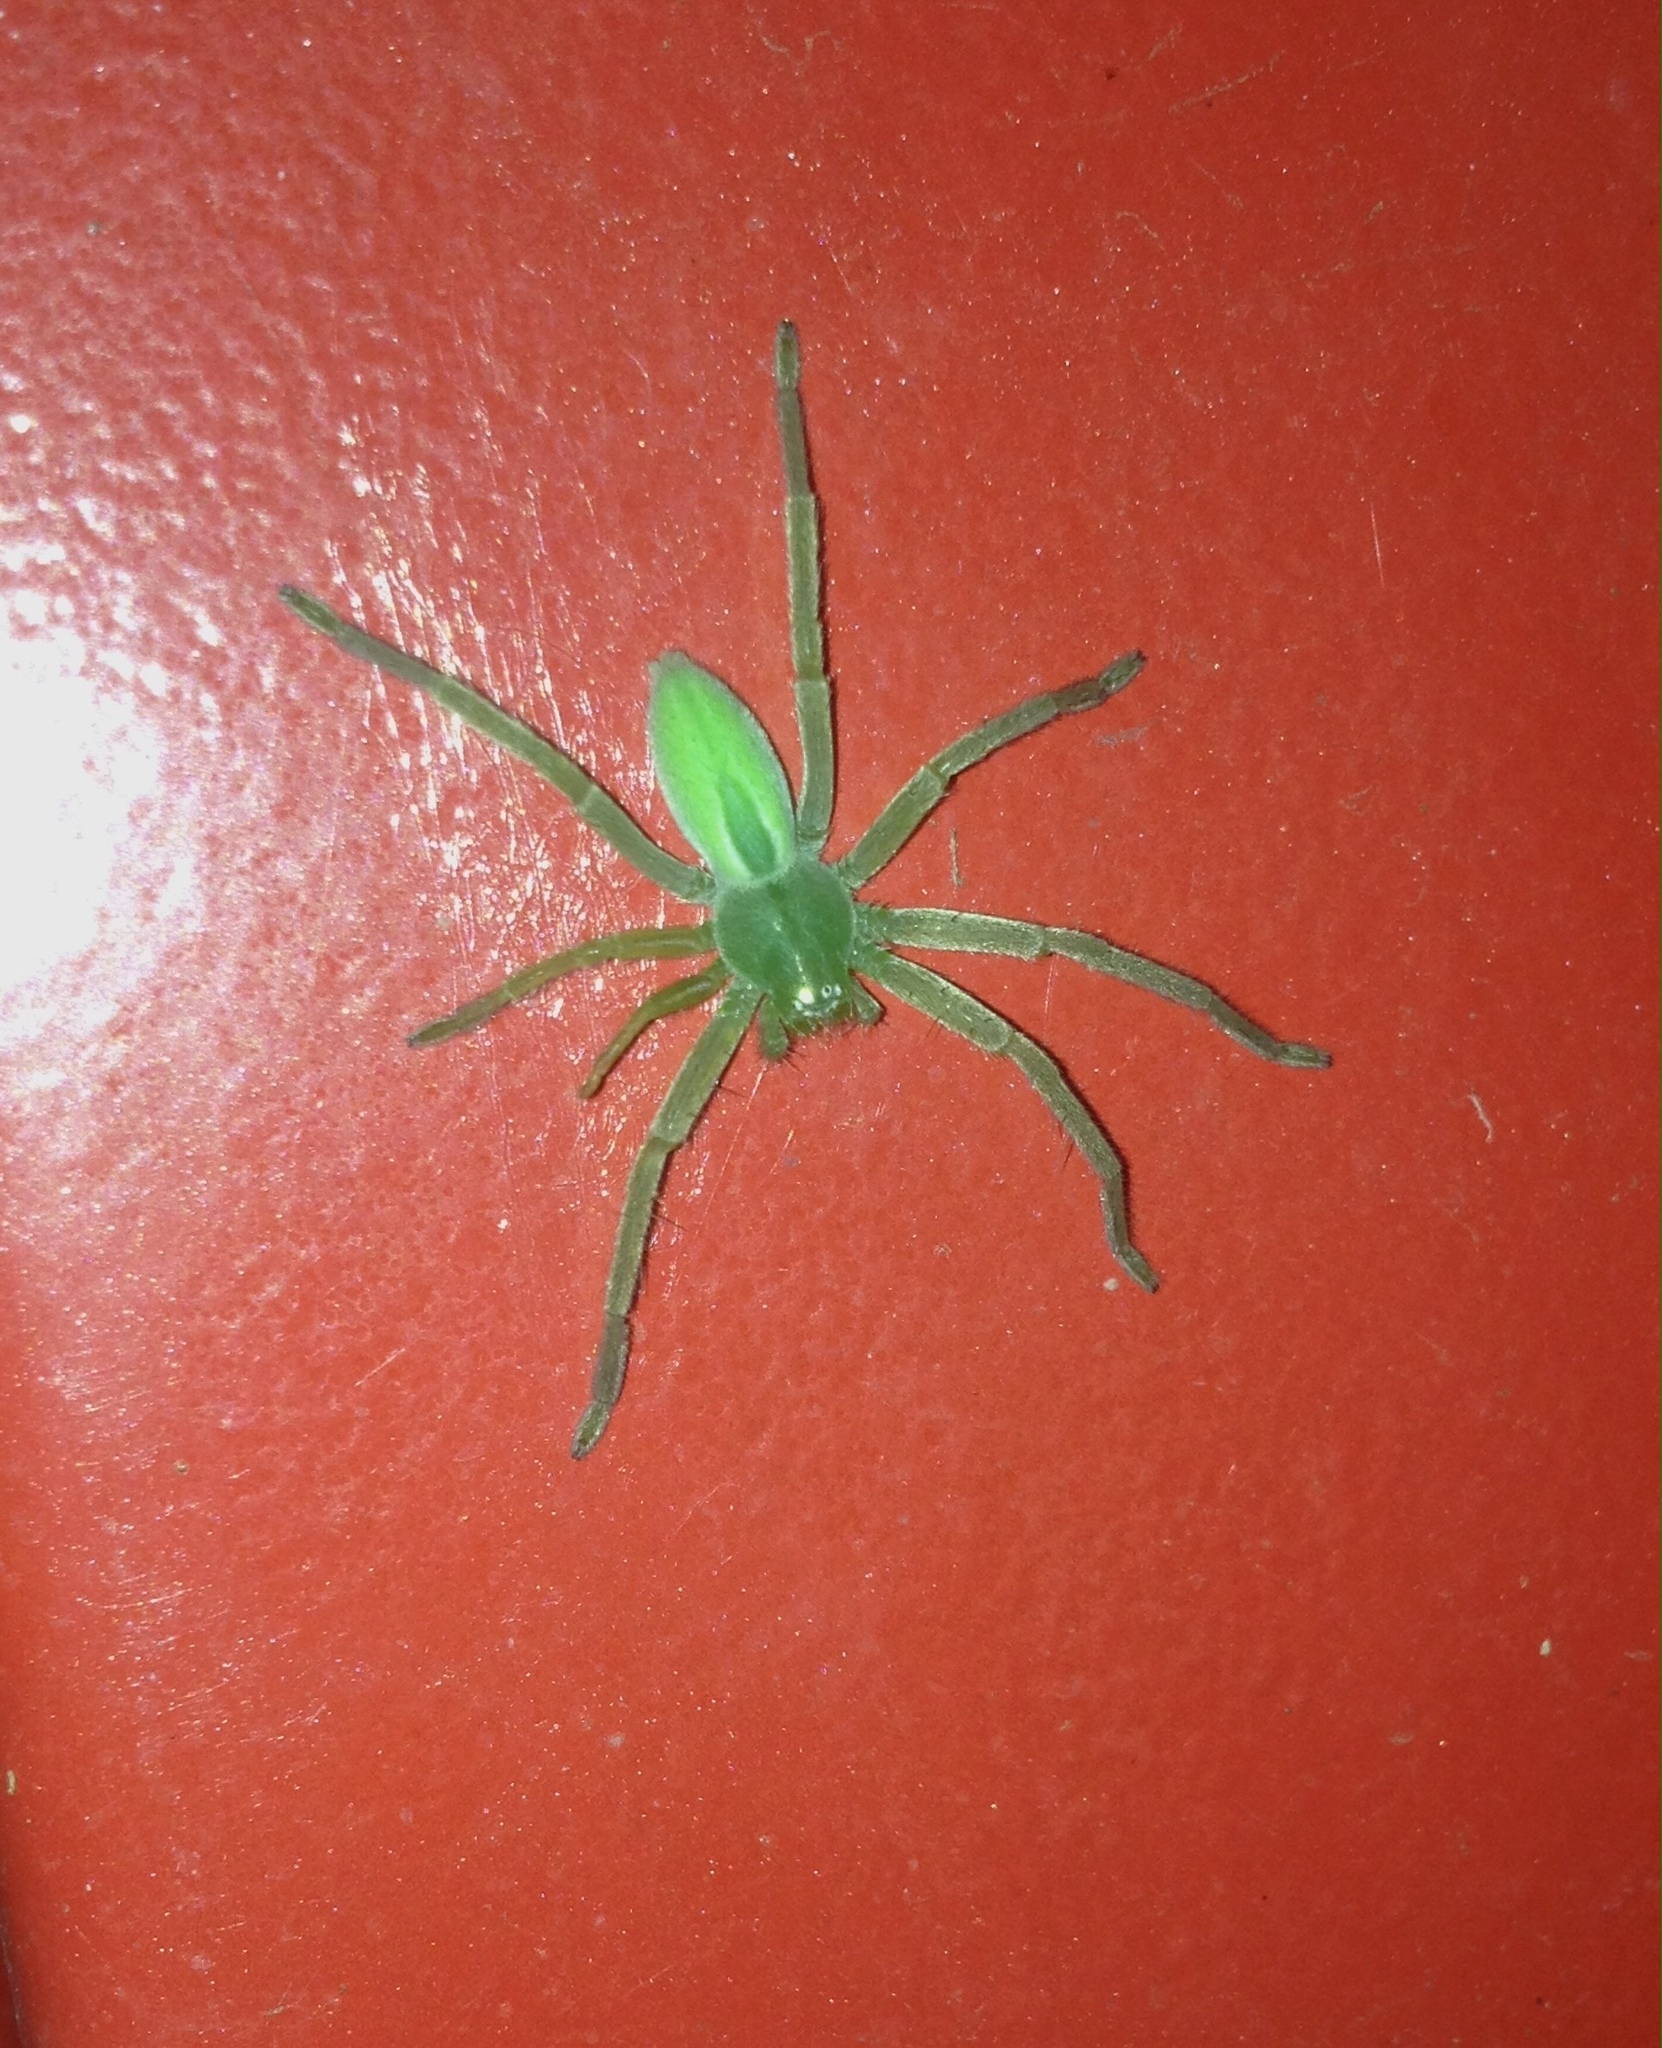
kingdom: Animalia
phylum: Arthropoda
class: Arachnida
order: Araneae
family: Sparassidae
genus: Micrommata
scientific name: Micrommata virescens
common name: Green spider
